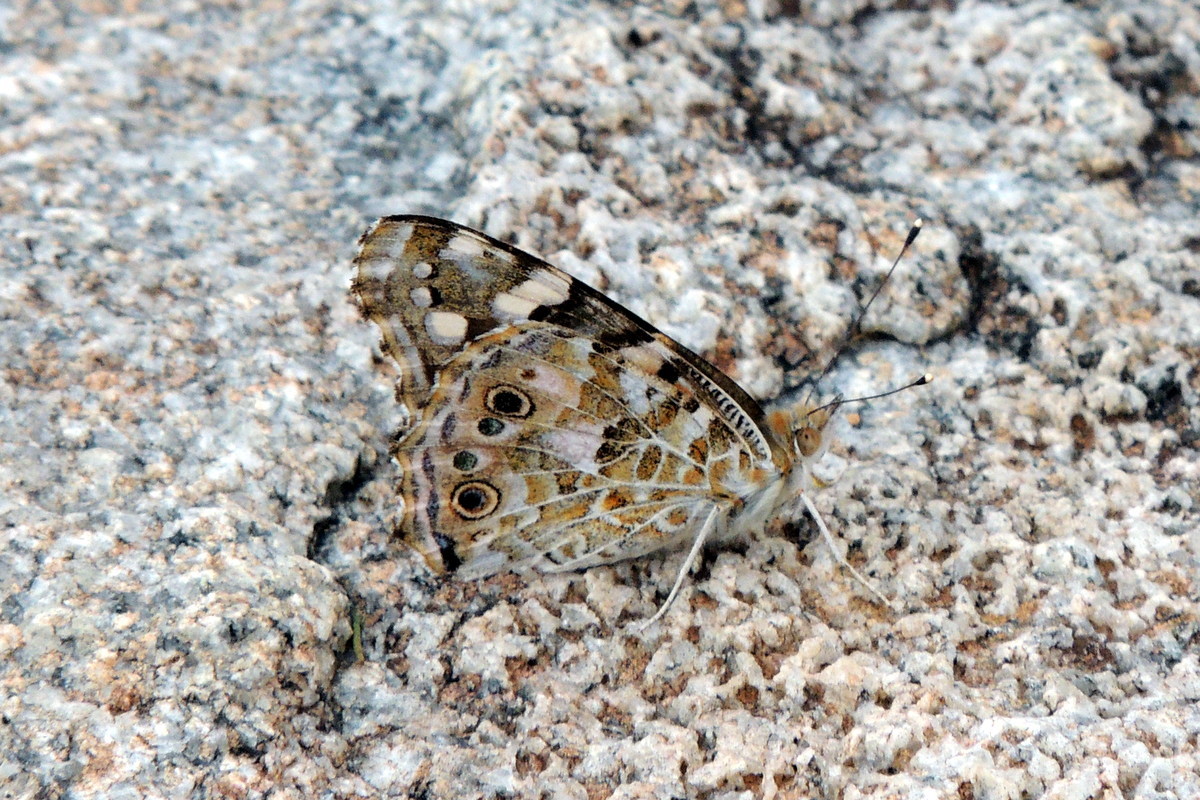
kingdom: Animalia
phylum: Arthropoda
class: Insecta
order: Lepidoptera
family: Nymphalidae
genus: Vanessa
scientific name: Vanessa cardui
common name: Painted lady
